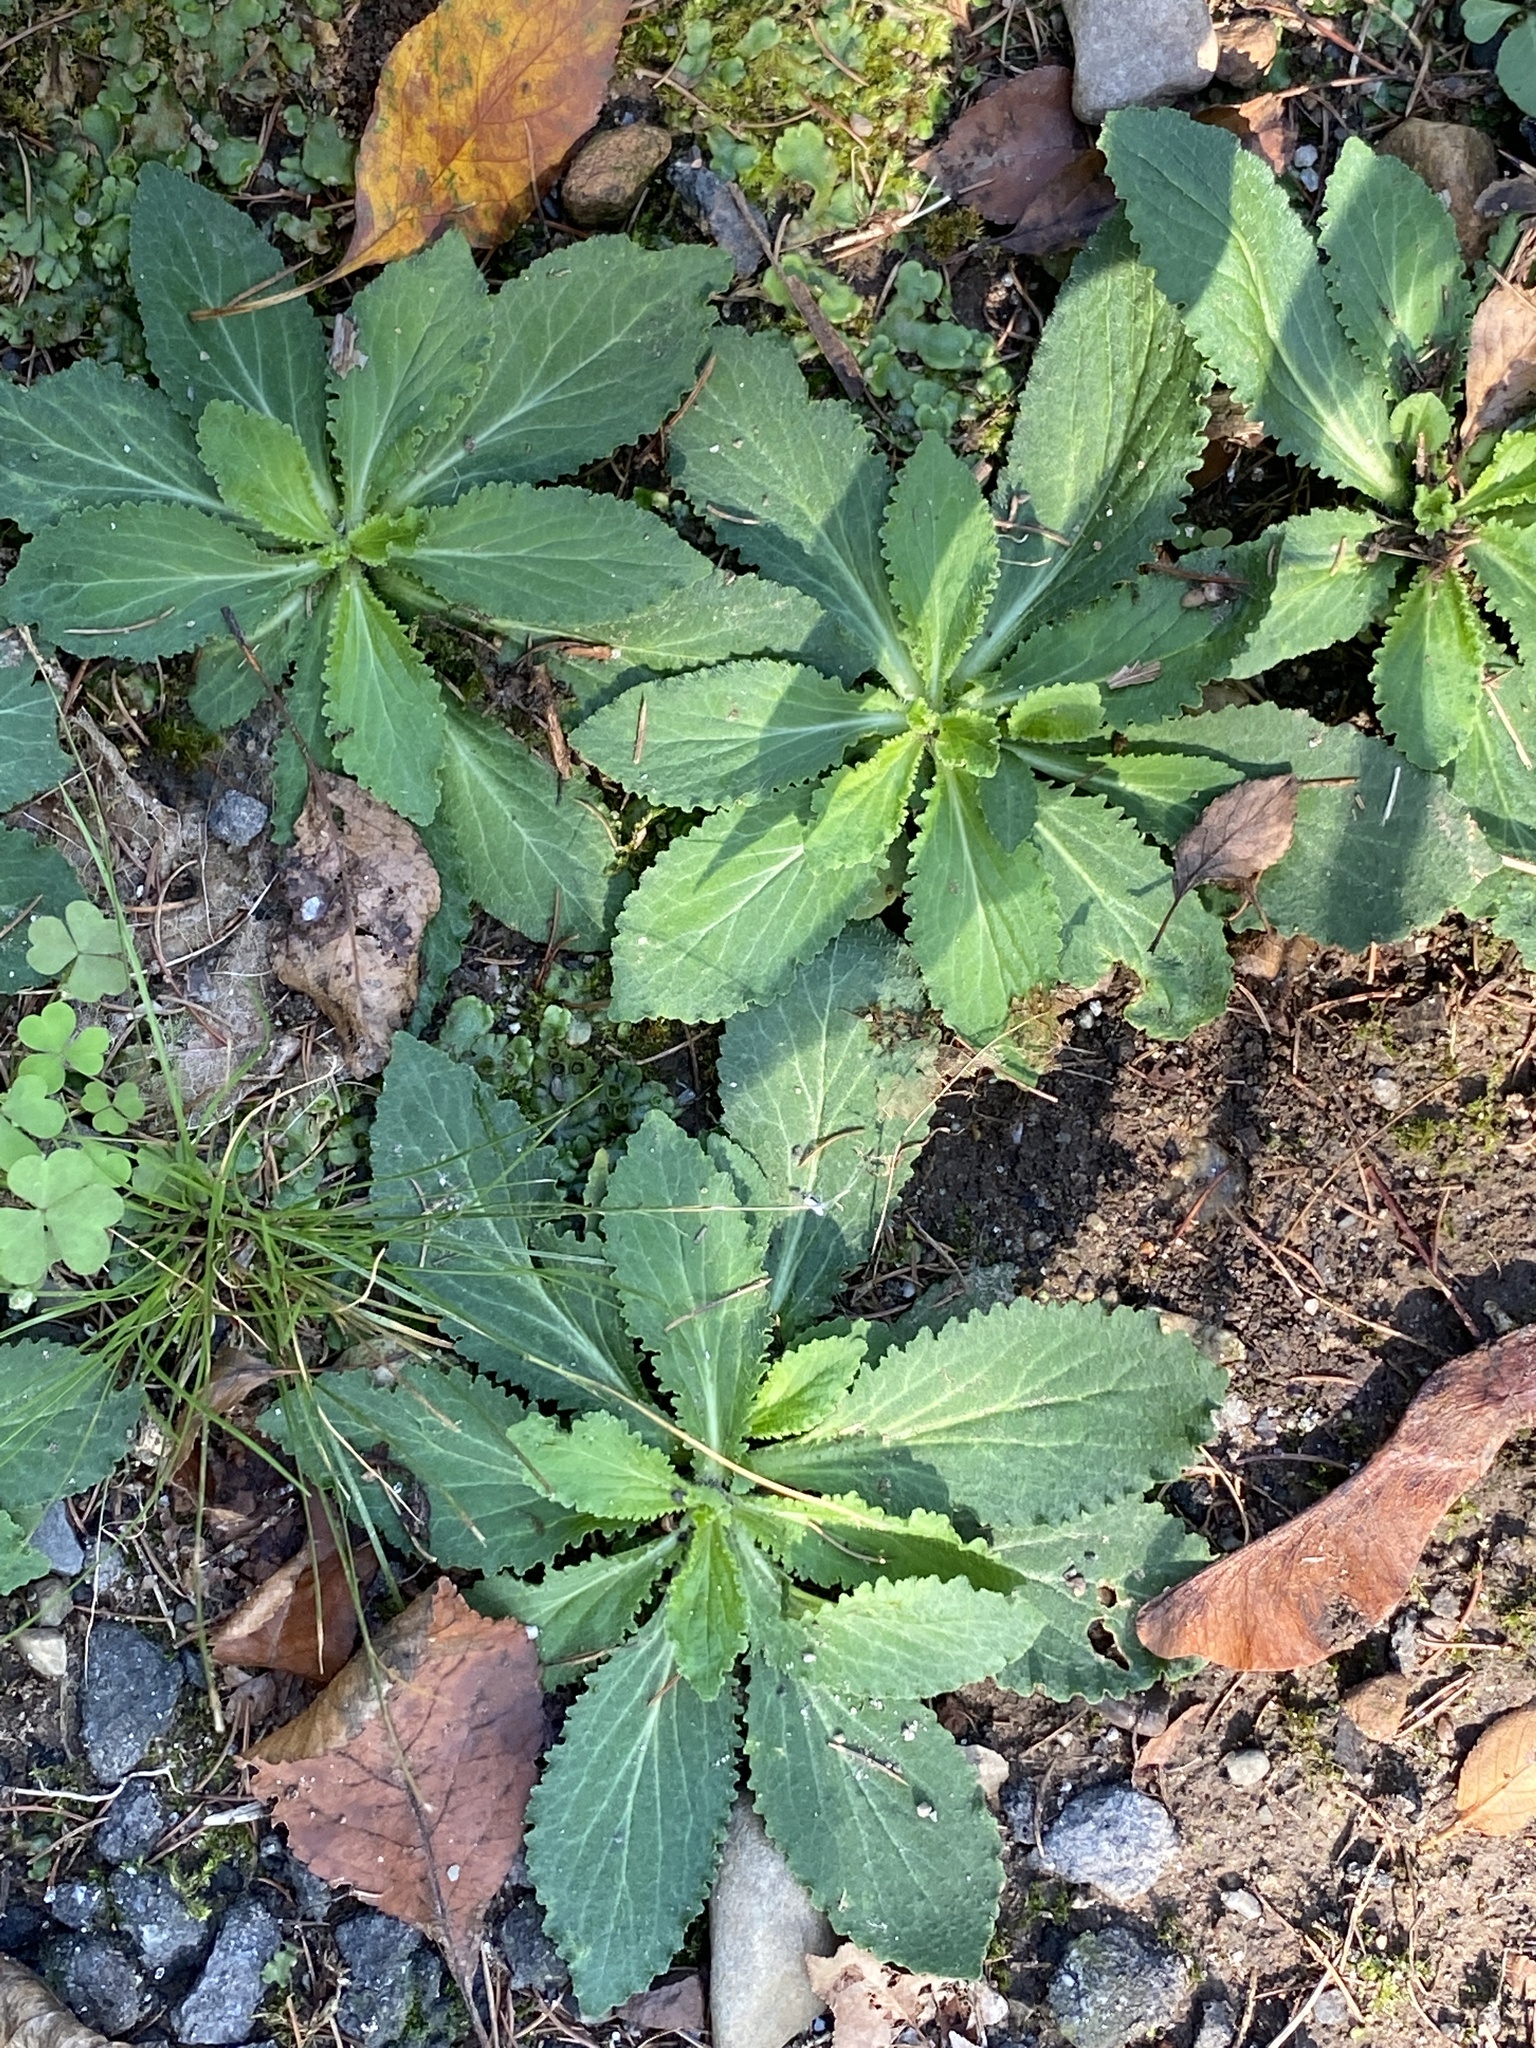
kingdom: Plantae
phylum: Tracheophyta
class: Magnoliopsida
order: Asterales
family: Campanulaceae
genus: Lobelia
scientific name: Lobelia inflata
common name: Indian tobacco
